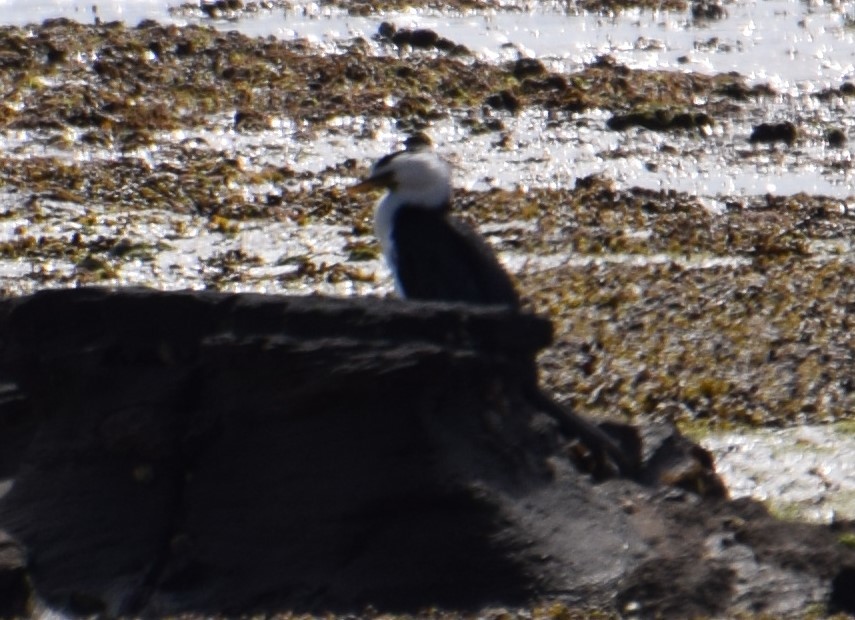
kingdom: Animalia
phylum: Chordata
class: Aves
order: Suliformes
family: Phalacrocoracidae
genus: Microcarbo
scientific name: Microcarbo melanoleucos
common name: Little pied cormorant
